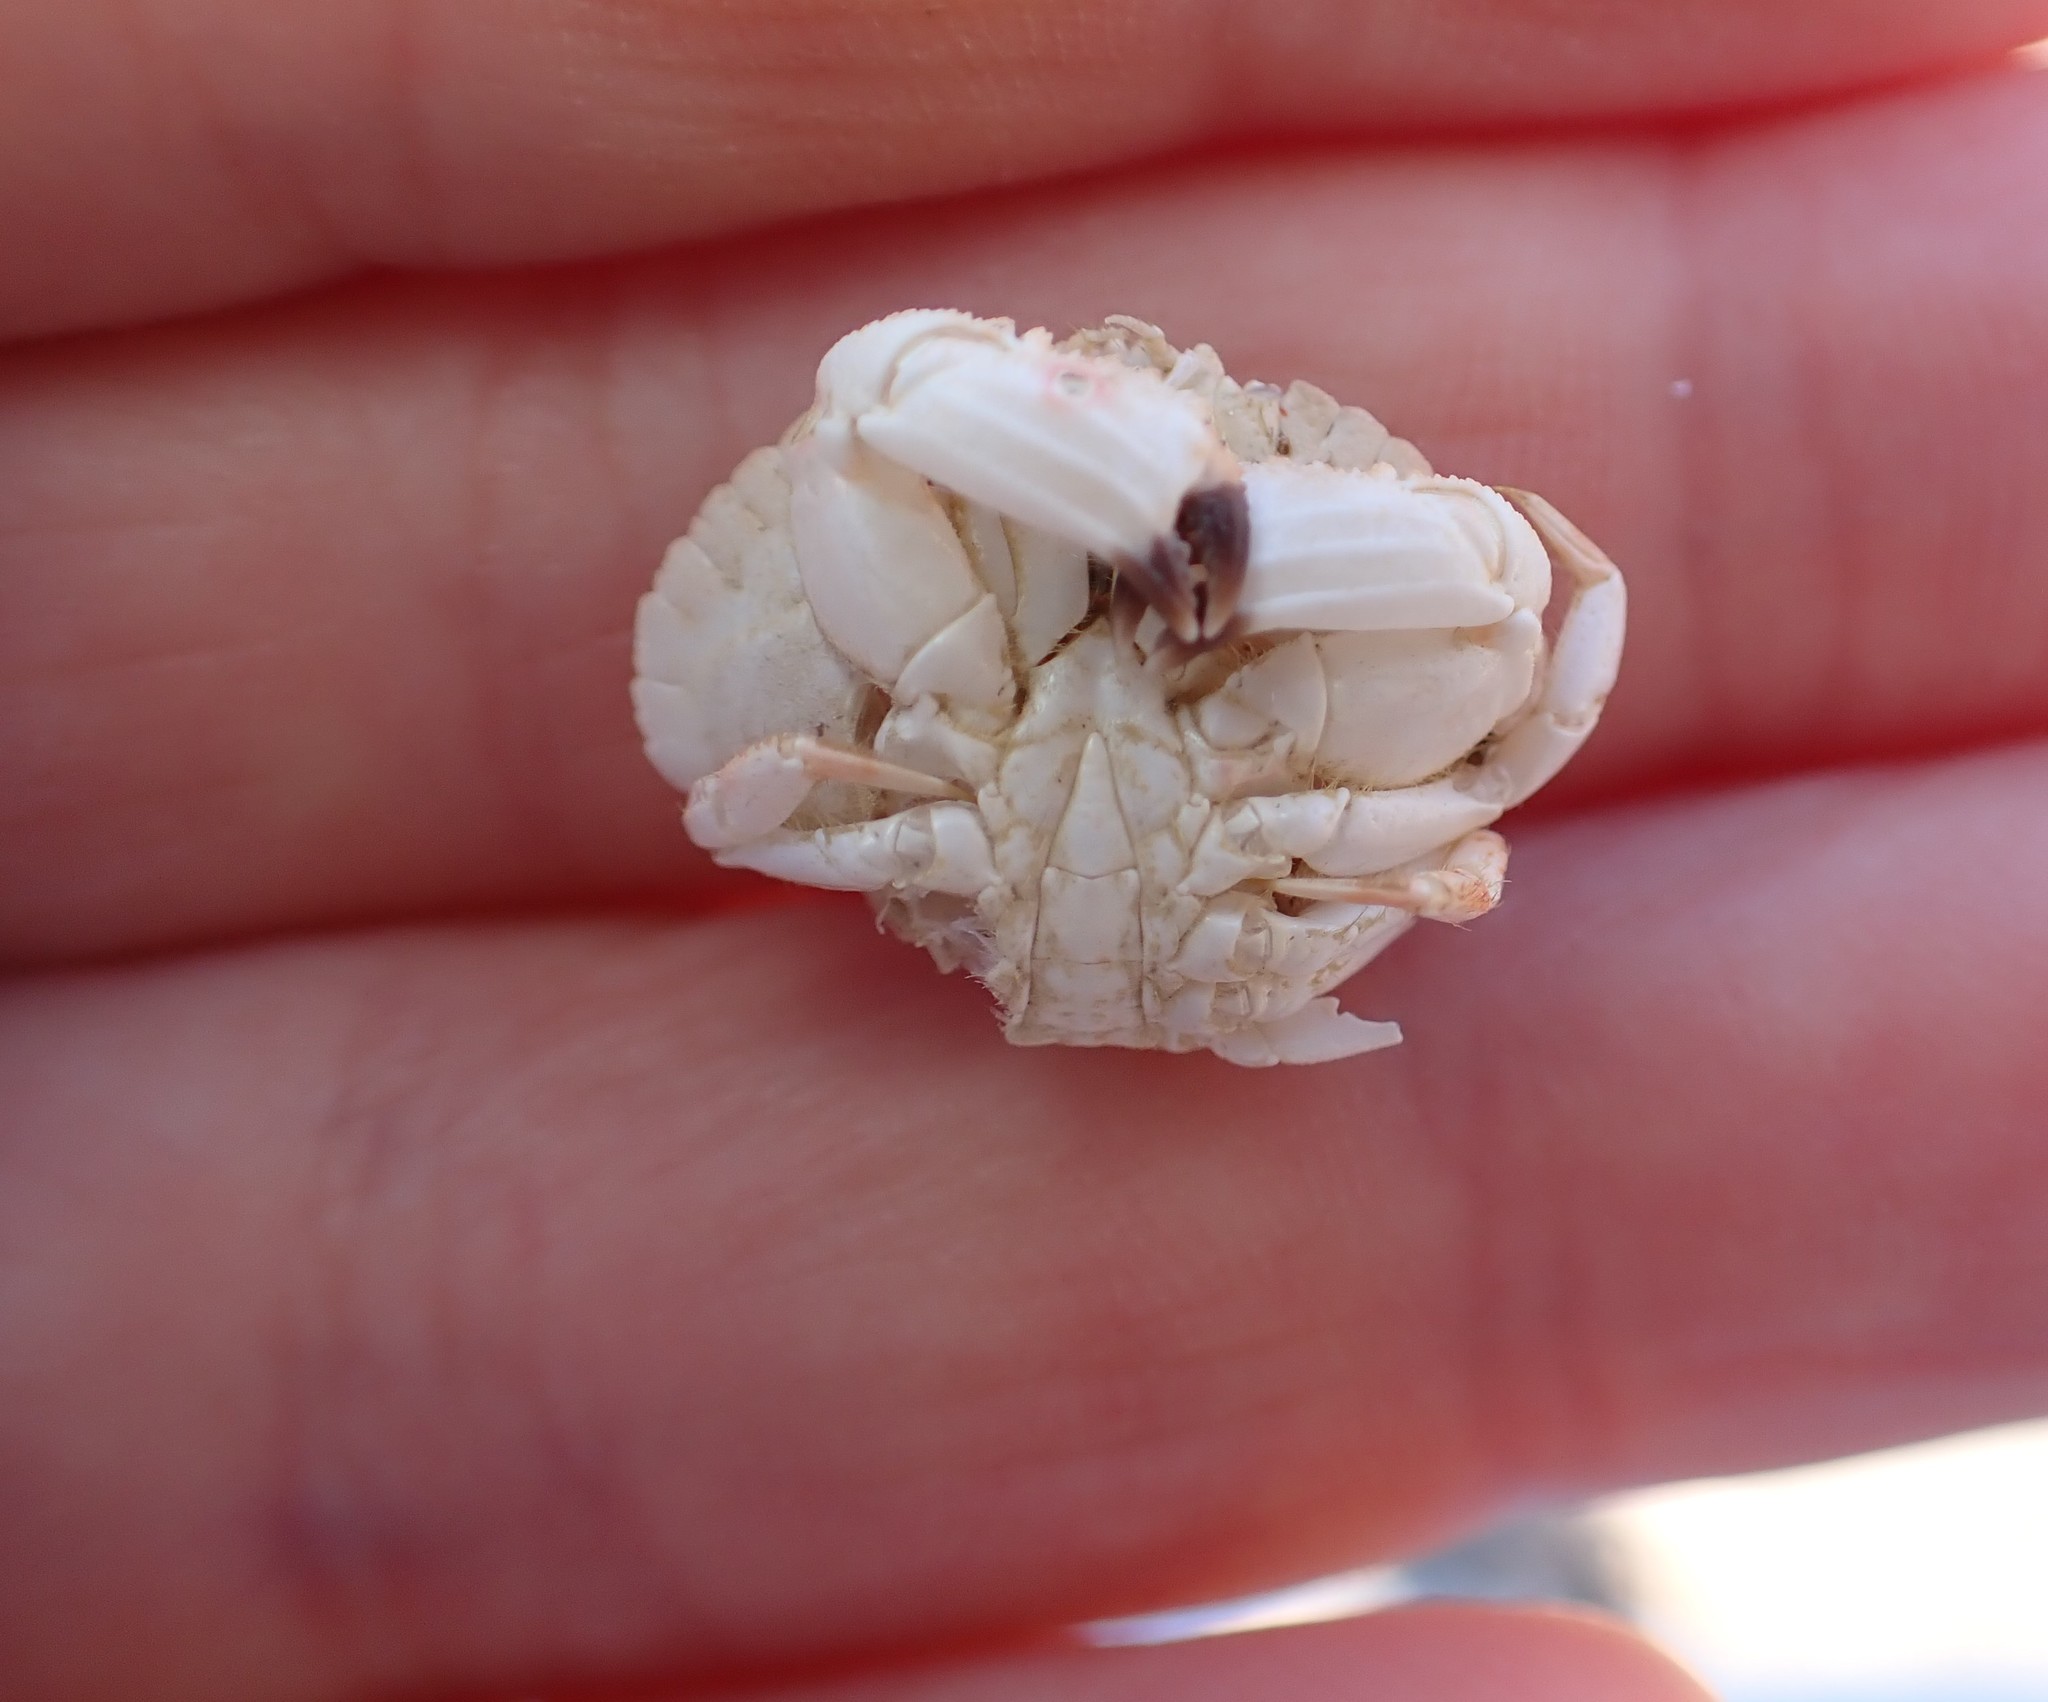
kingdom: Animalia
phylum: Arthropoda
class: Malacostraca
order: Decapoda
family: Cancridae
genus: Metacarcinus
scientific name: Metacarcinus novaezelandiae
